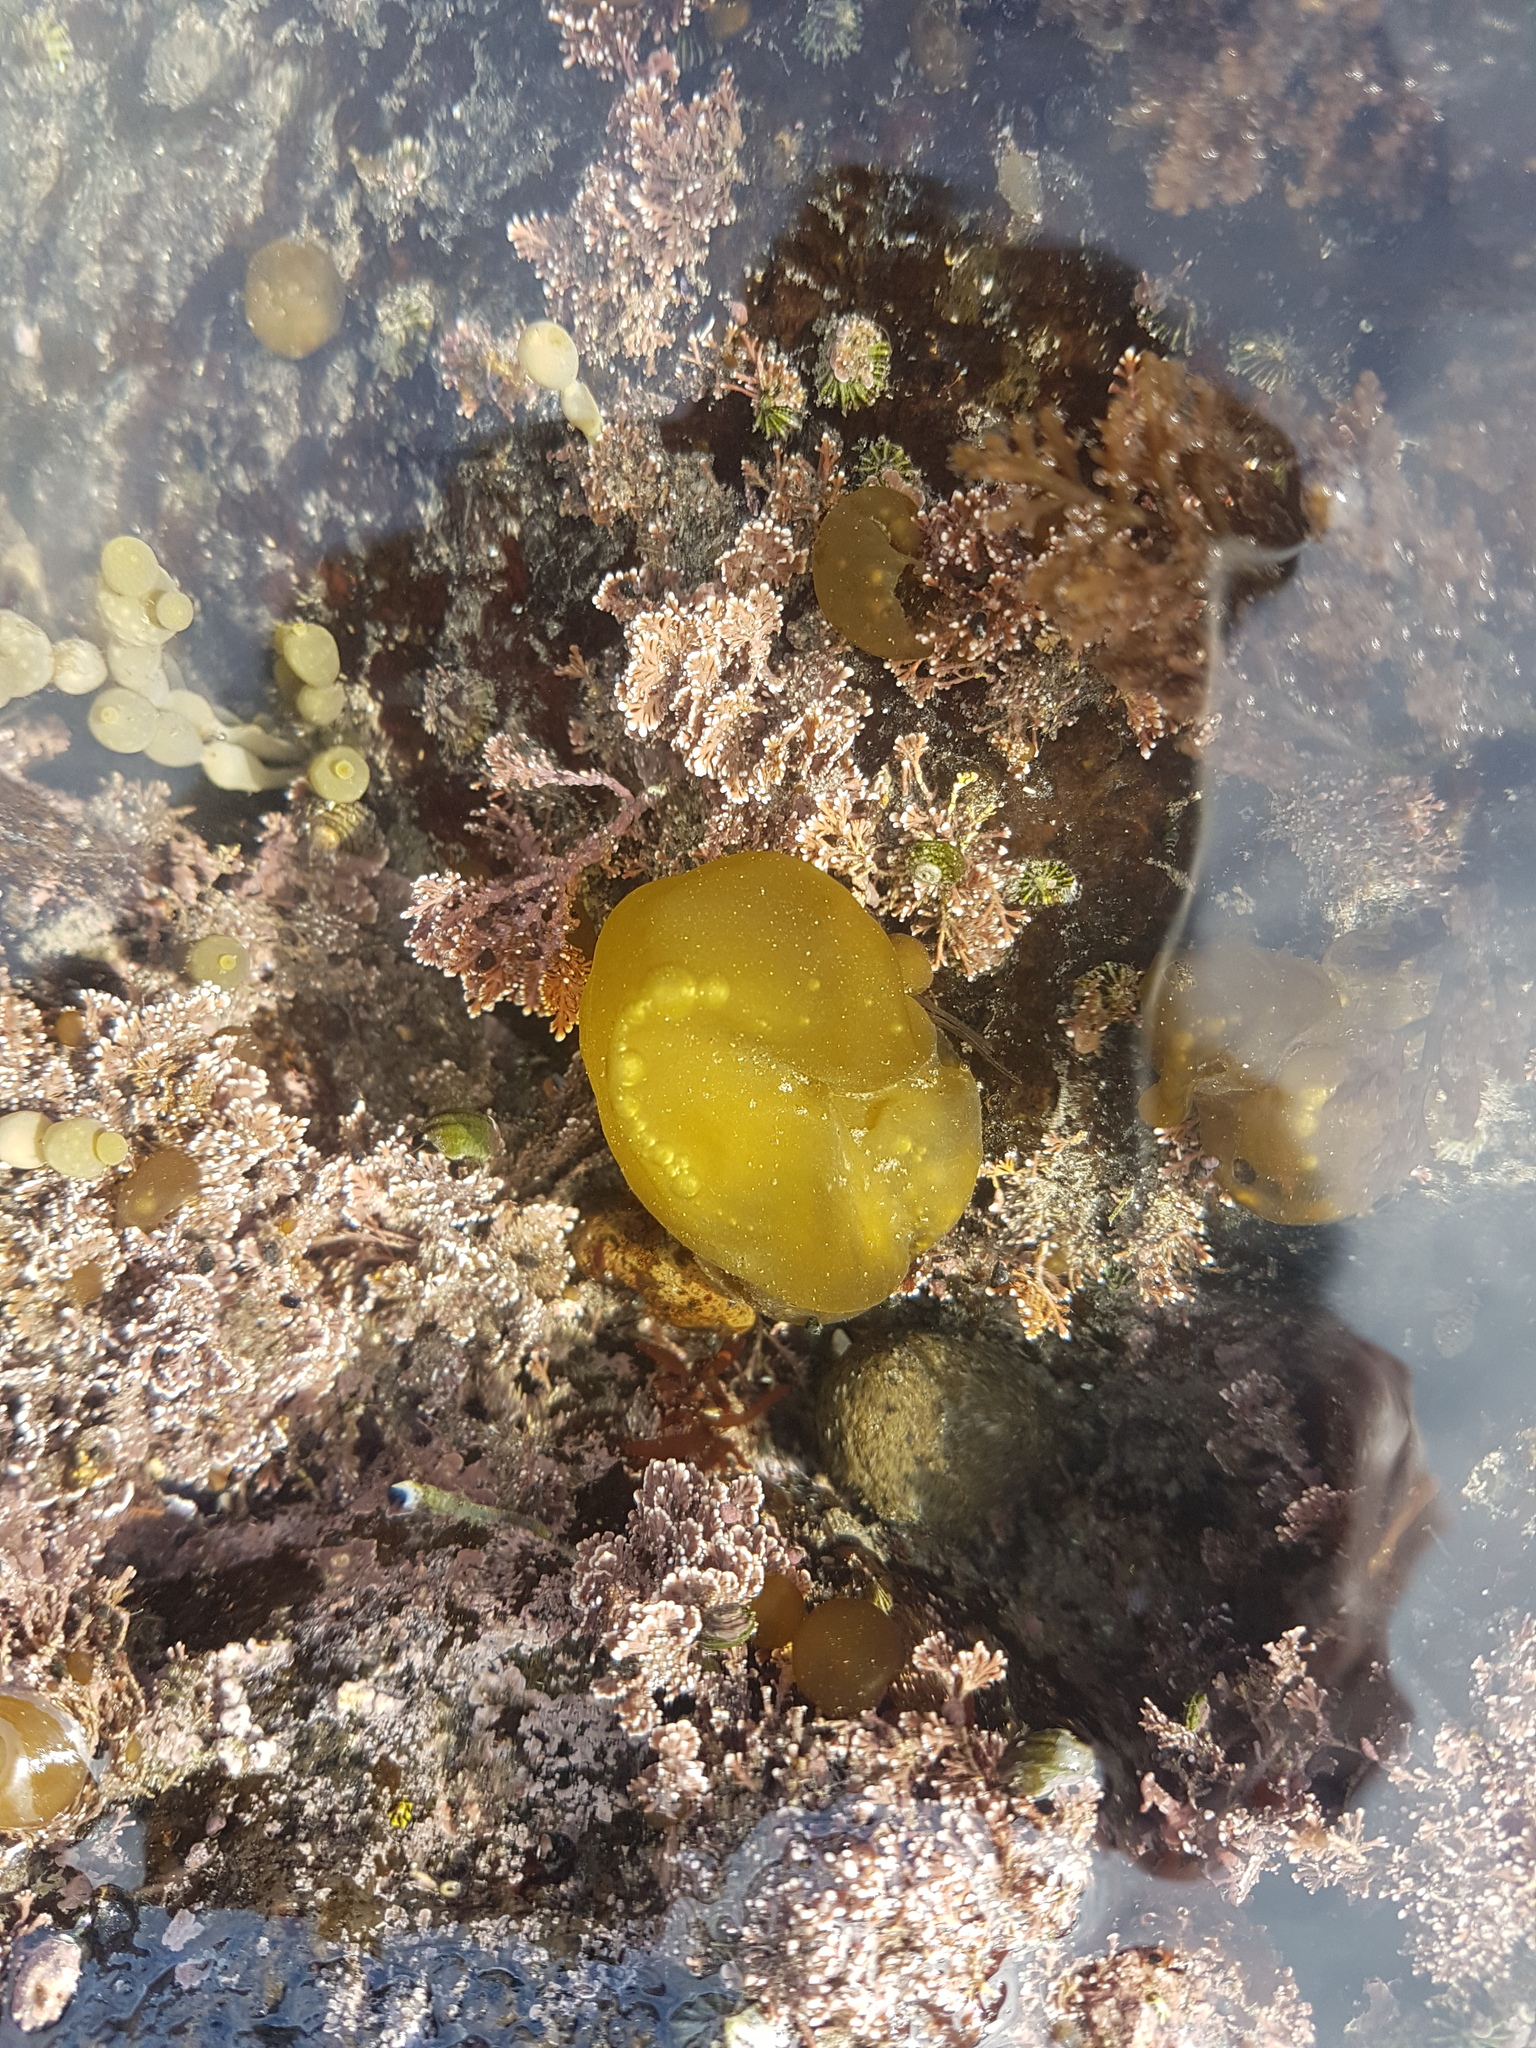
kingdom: Chromista
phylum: Ochrophyta
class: Phaeophyceae
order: Scytosiphonales
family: Scytosiphonaceae
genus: Colpomenia
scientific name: Colpomenia peregrina
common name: Oyster thief
